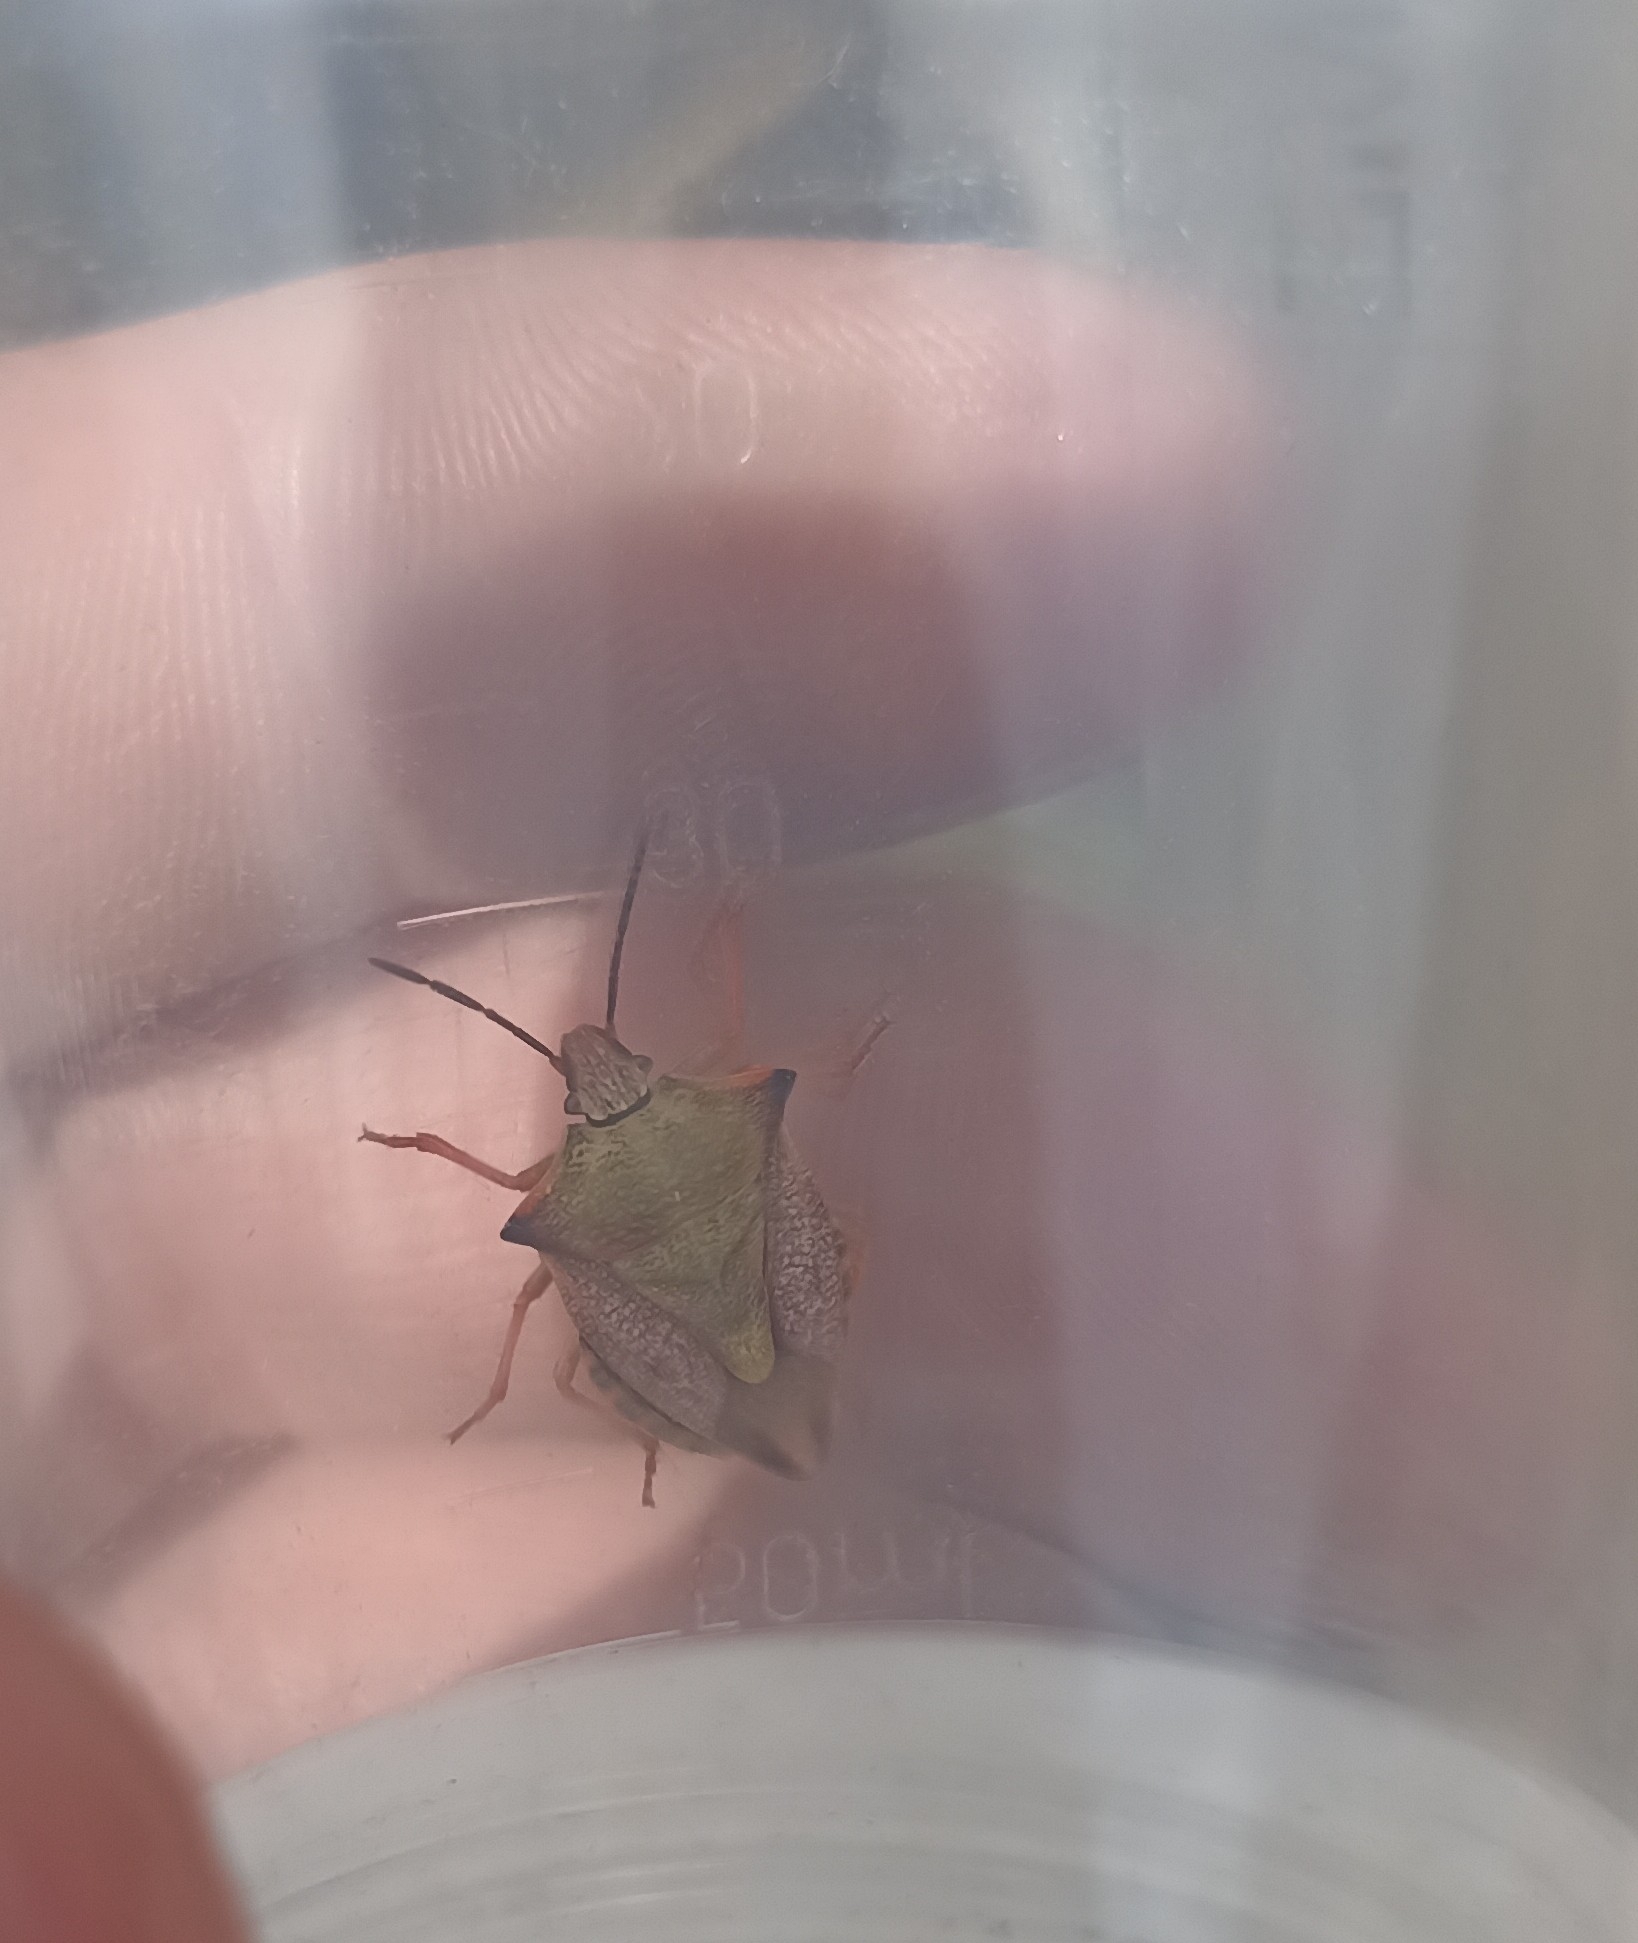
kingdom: Animalia
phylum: Arthropoda
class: Insecta
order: Hemiptera
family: Pentatomidae
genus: Carpocoris
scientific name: Carpocoris mediterraneus
